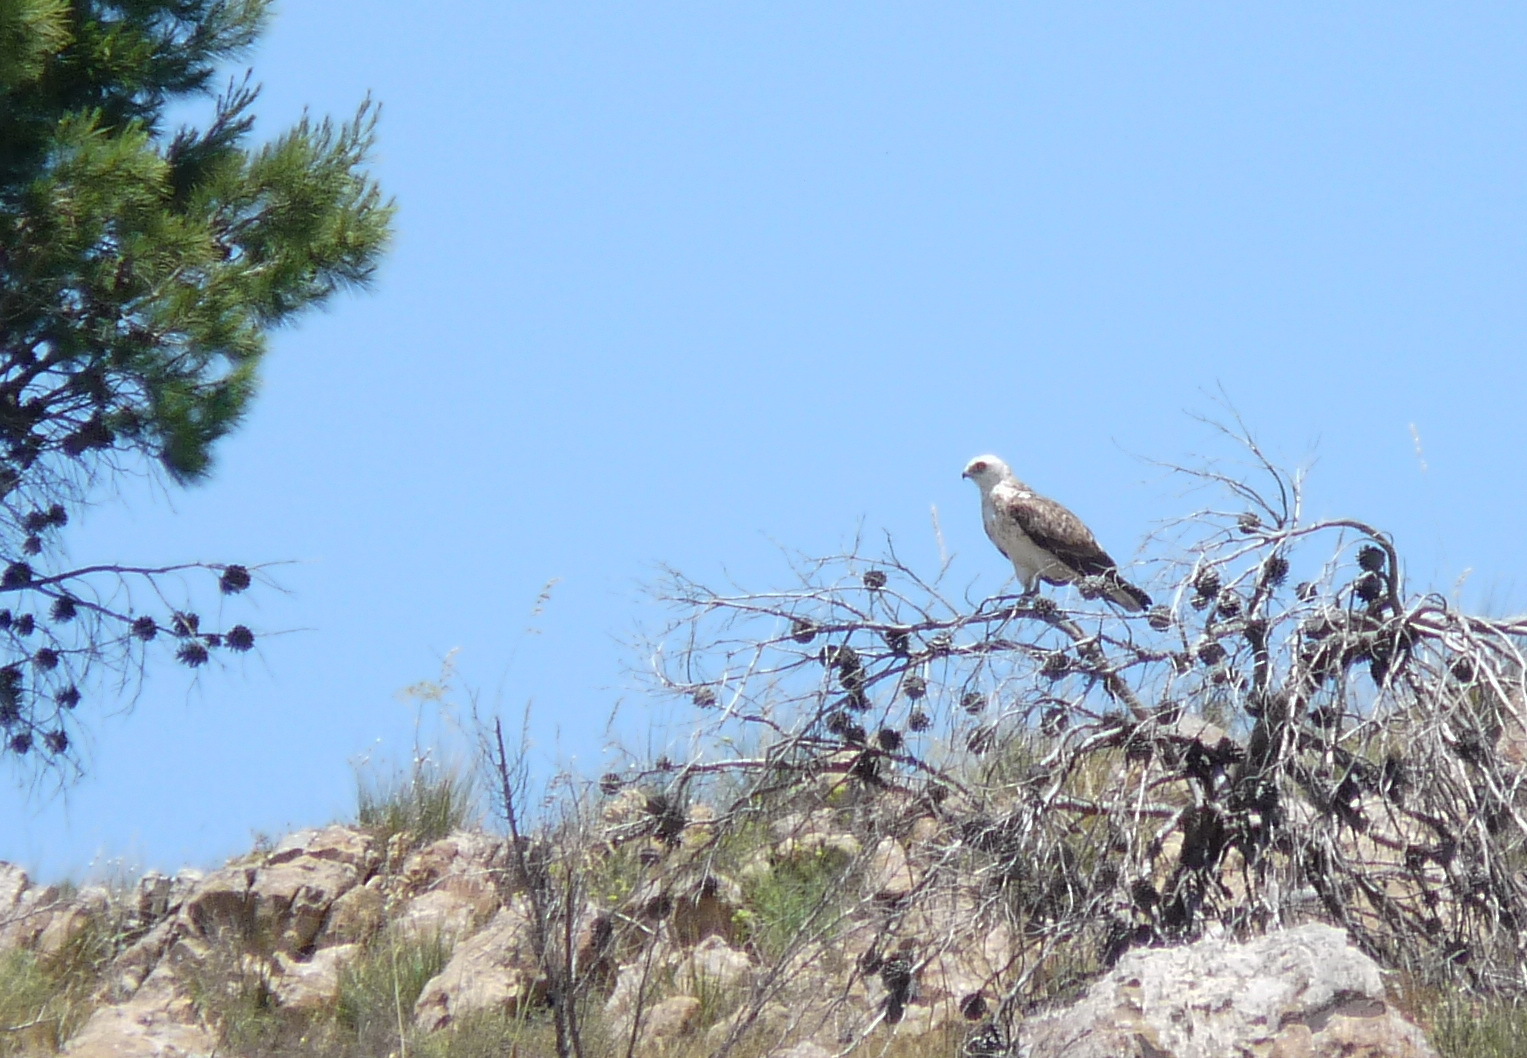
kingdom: Animalia
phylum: Chordata
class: Aves
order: Accipitriformes
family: Accipitridae
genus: Circaetus
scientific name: Circaetus gallicus
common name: Short-toed snake eagle
